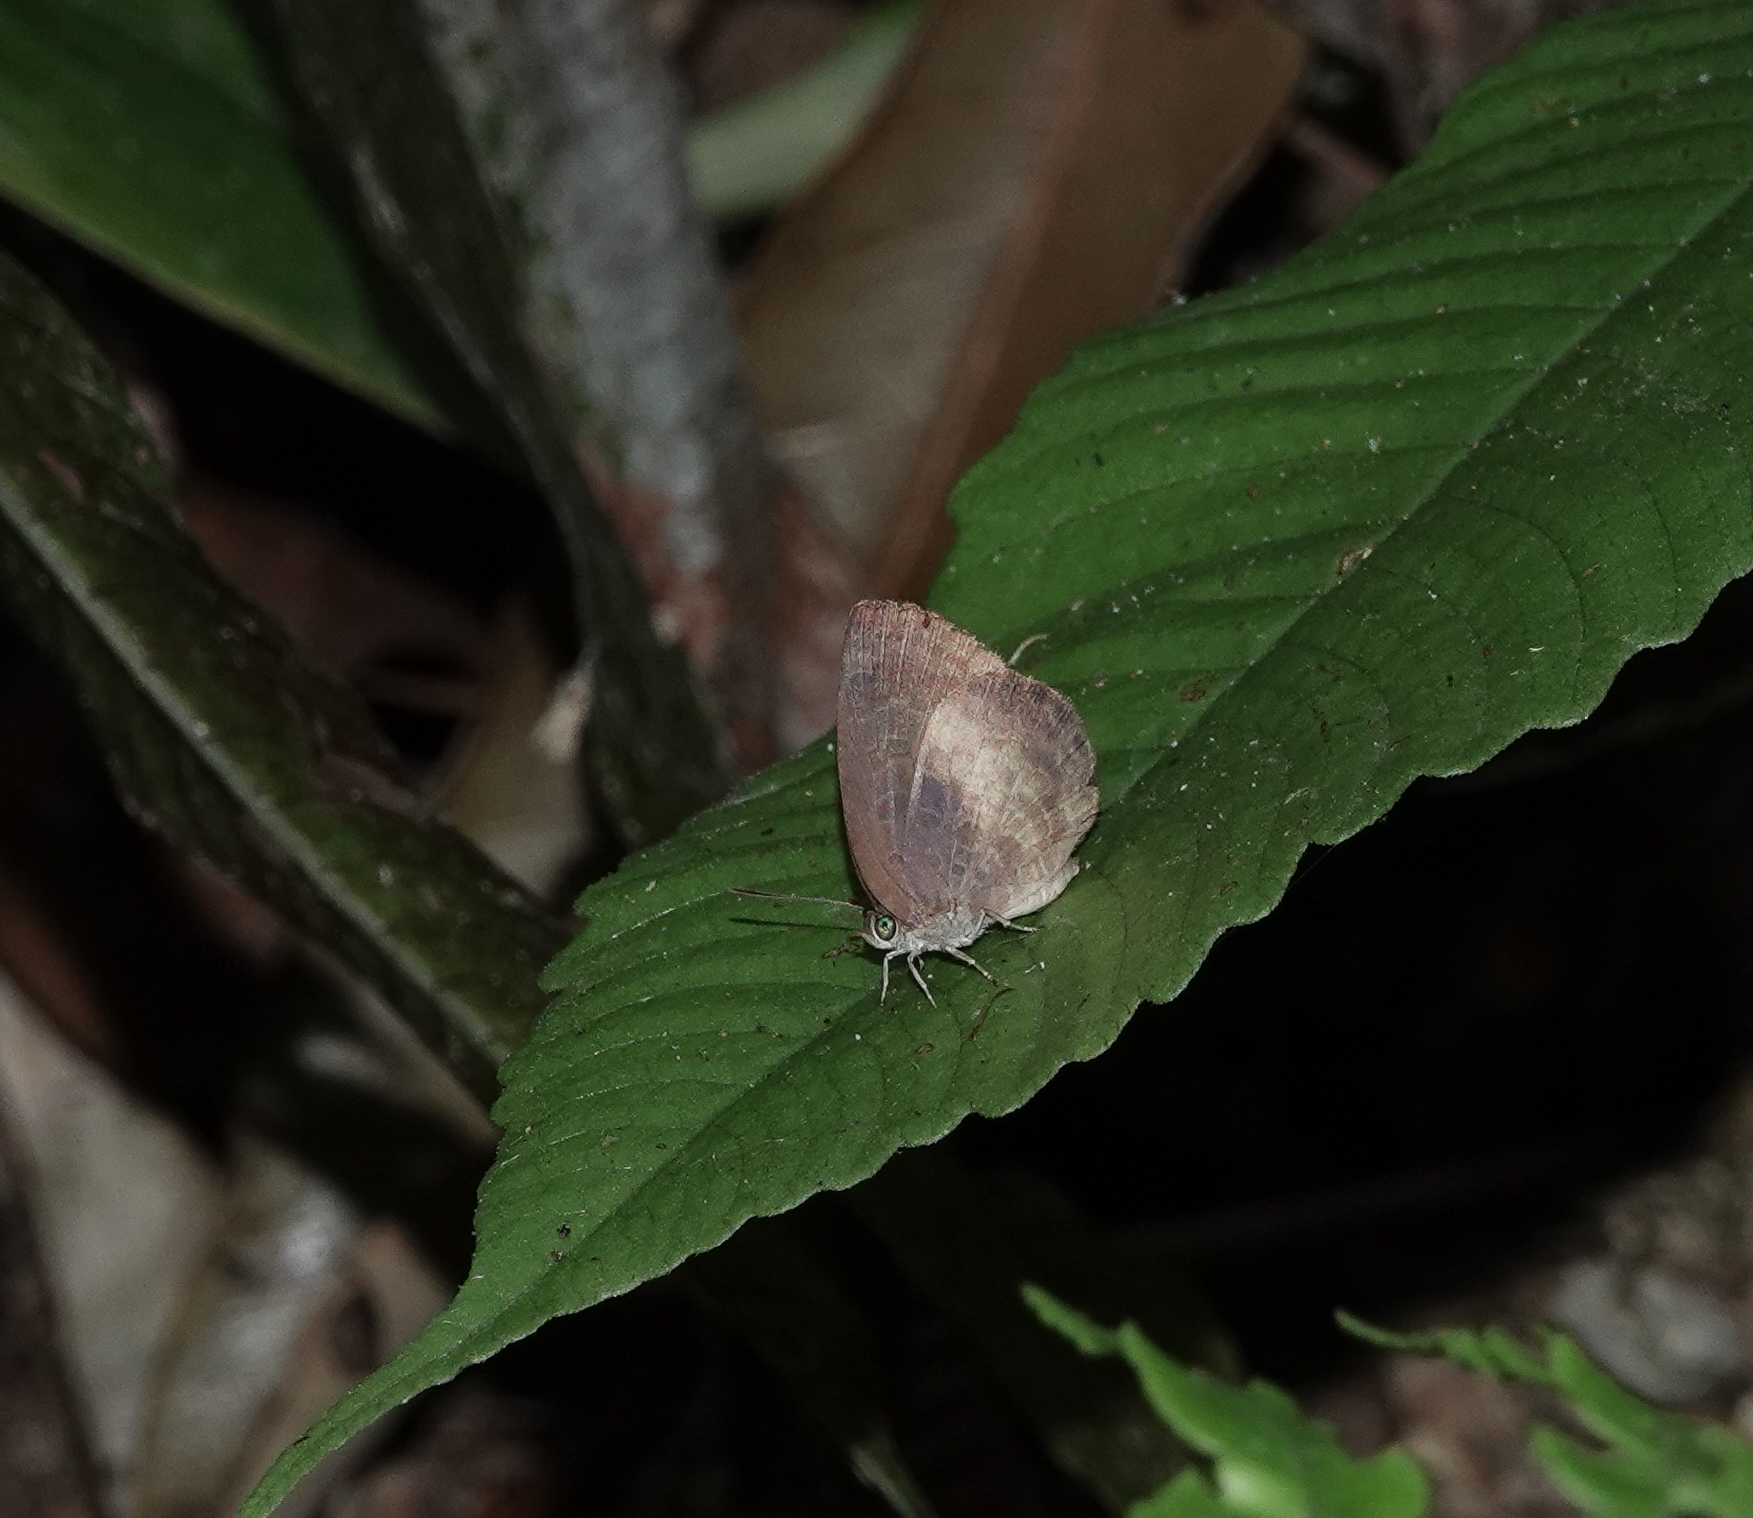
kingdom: Animalia
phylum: Arthropoda
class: Insecta
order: Lepidoptera
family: Lycaenidae
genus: Arhopala
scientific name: Arhopala perimuta
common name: Yellowdisc oakblue
